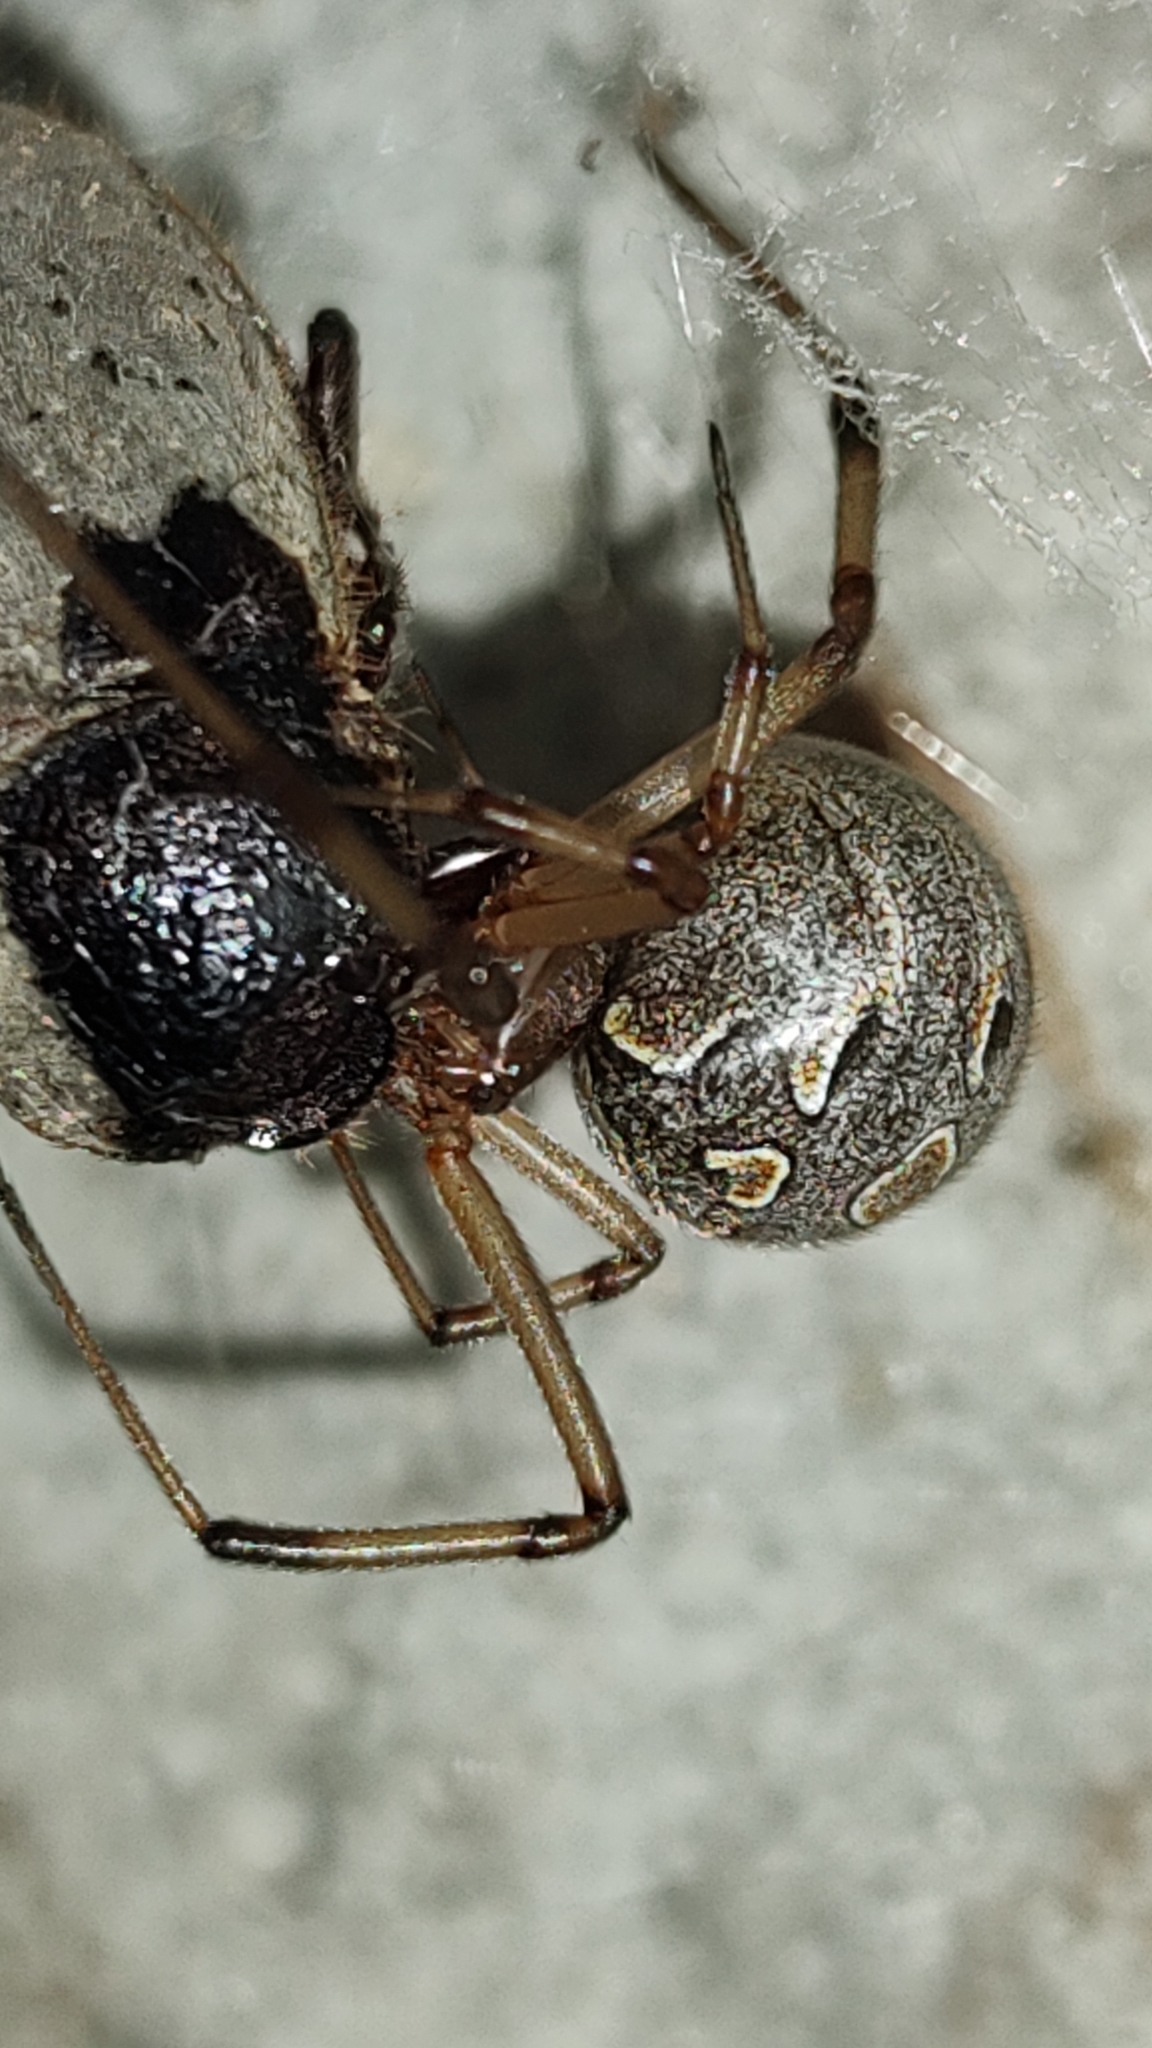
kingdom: Animalia
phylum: Arthropoda
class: Arachnida
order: Araneae
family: Theridiidae
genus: Latrodectus
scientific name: Latrodectus geometricus
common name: Brown widow spider
